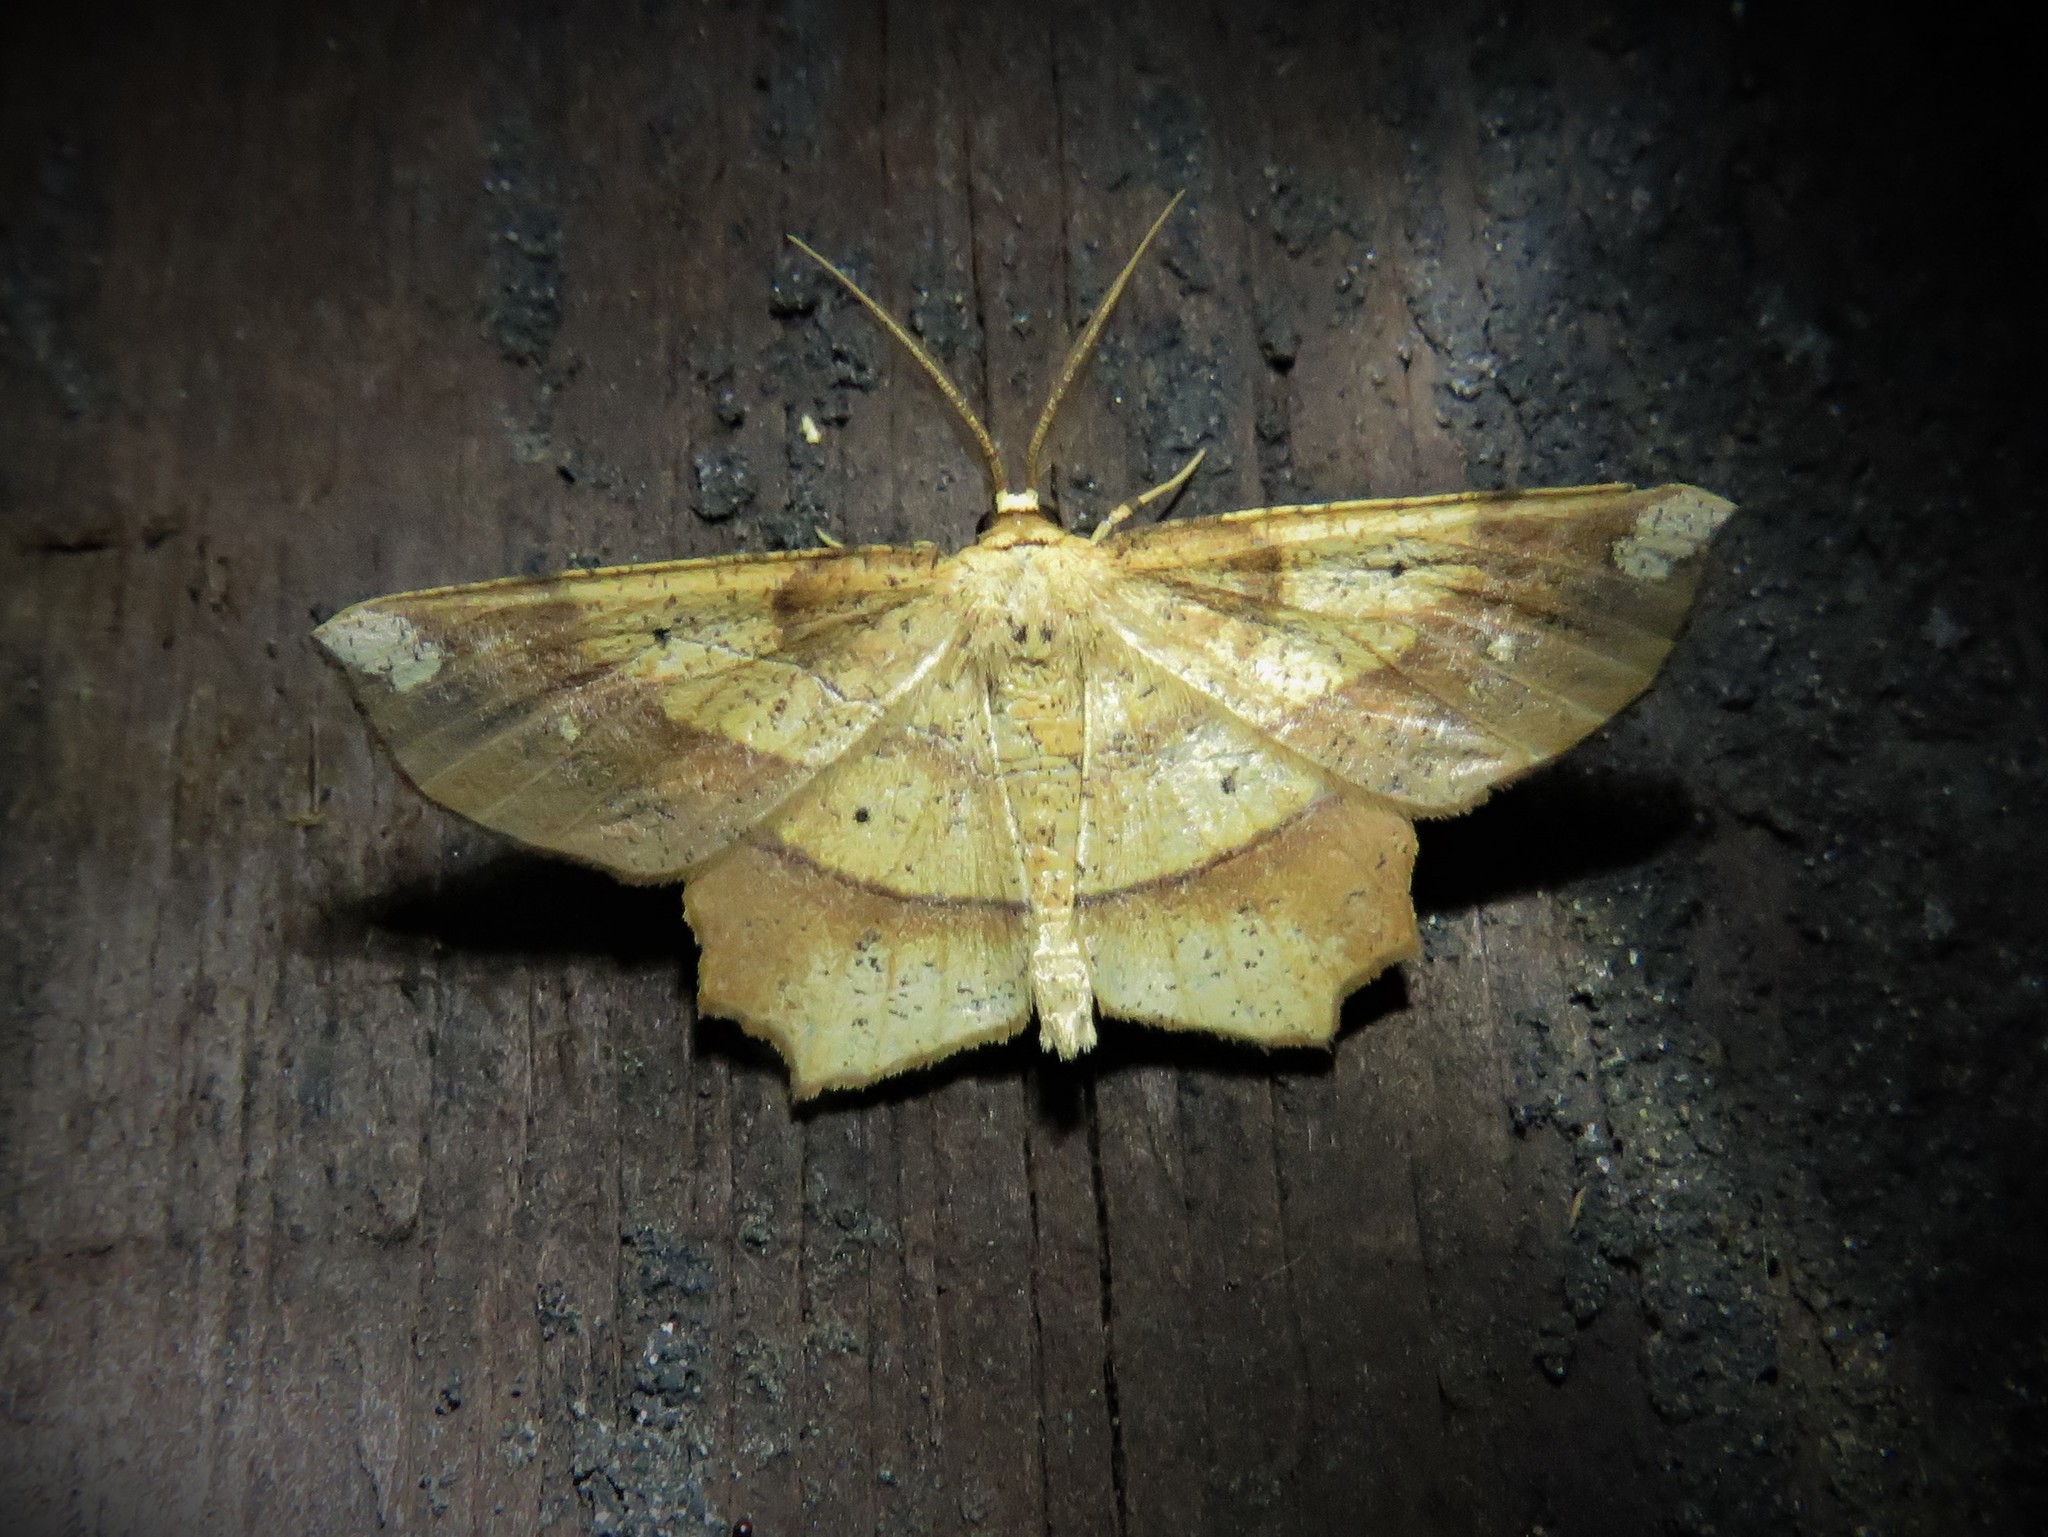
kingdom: Animalia
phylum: Arthropoda
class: Insecta
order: Lepidoptera
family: Geometridae
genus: Euchlaena
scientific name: Euchlaena amoenaria
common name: Deep yellow euchlaena
